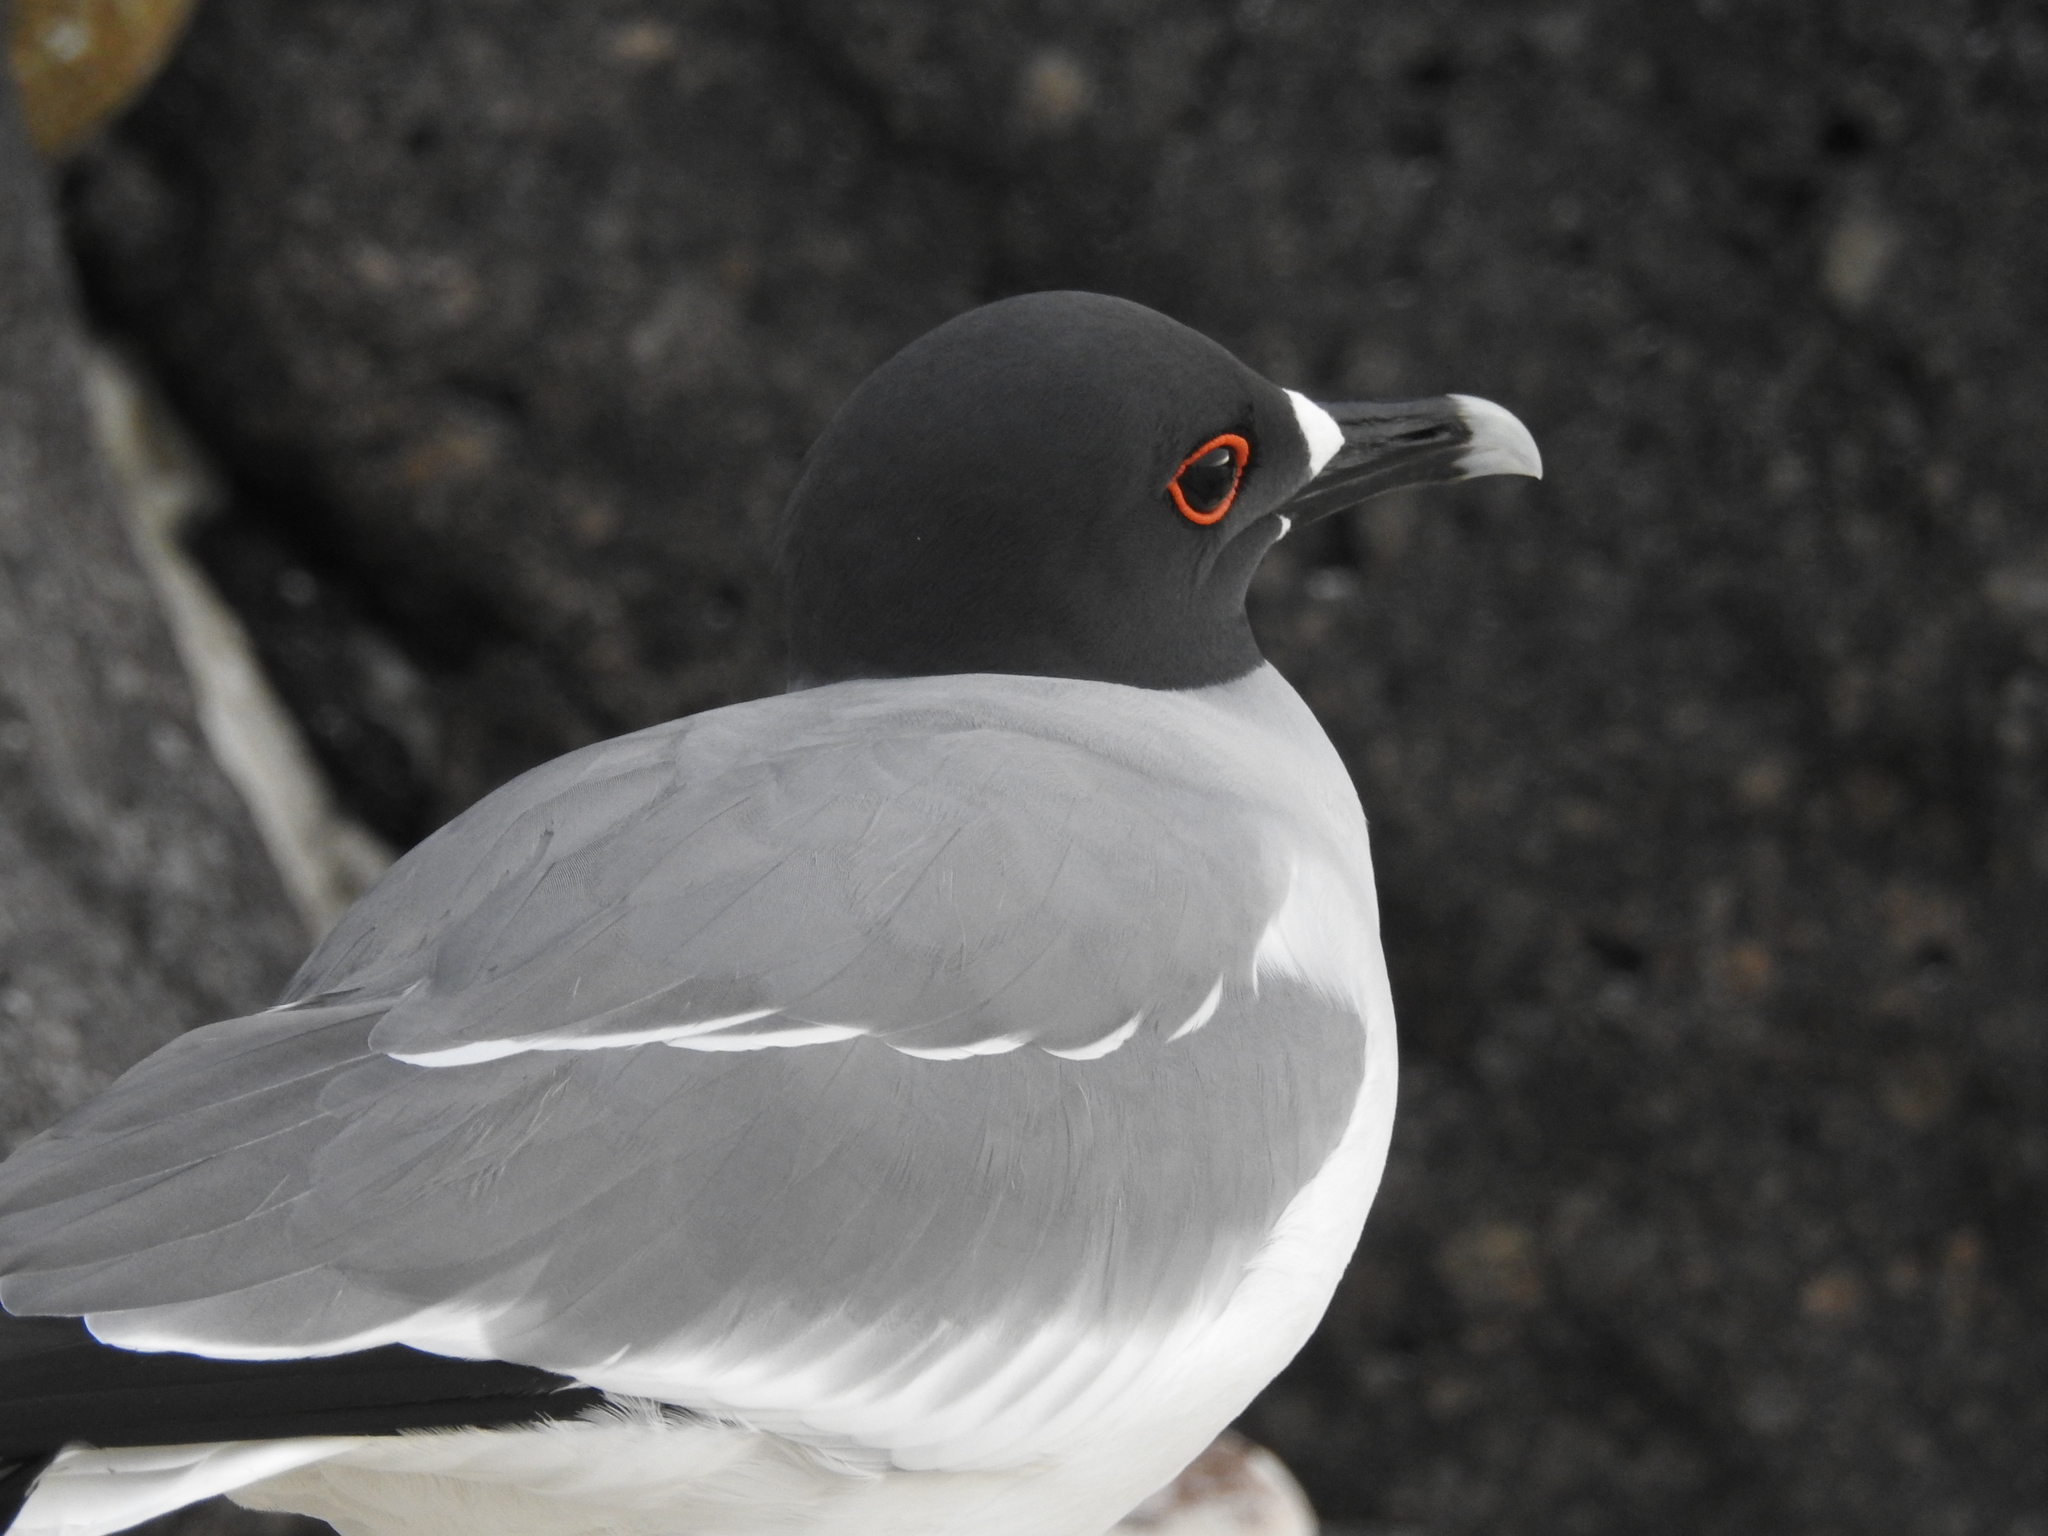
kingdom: Animalia
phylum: Chordata
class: Aves
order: Charadriiformes
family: Laridae
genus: Creagrus
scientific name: Creagrus furcatus
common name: Swallow-tailed gull
